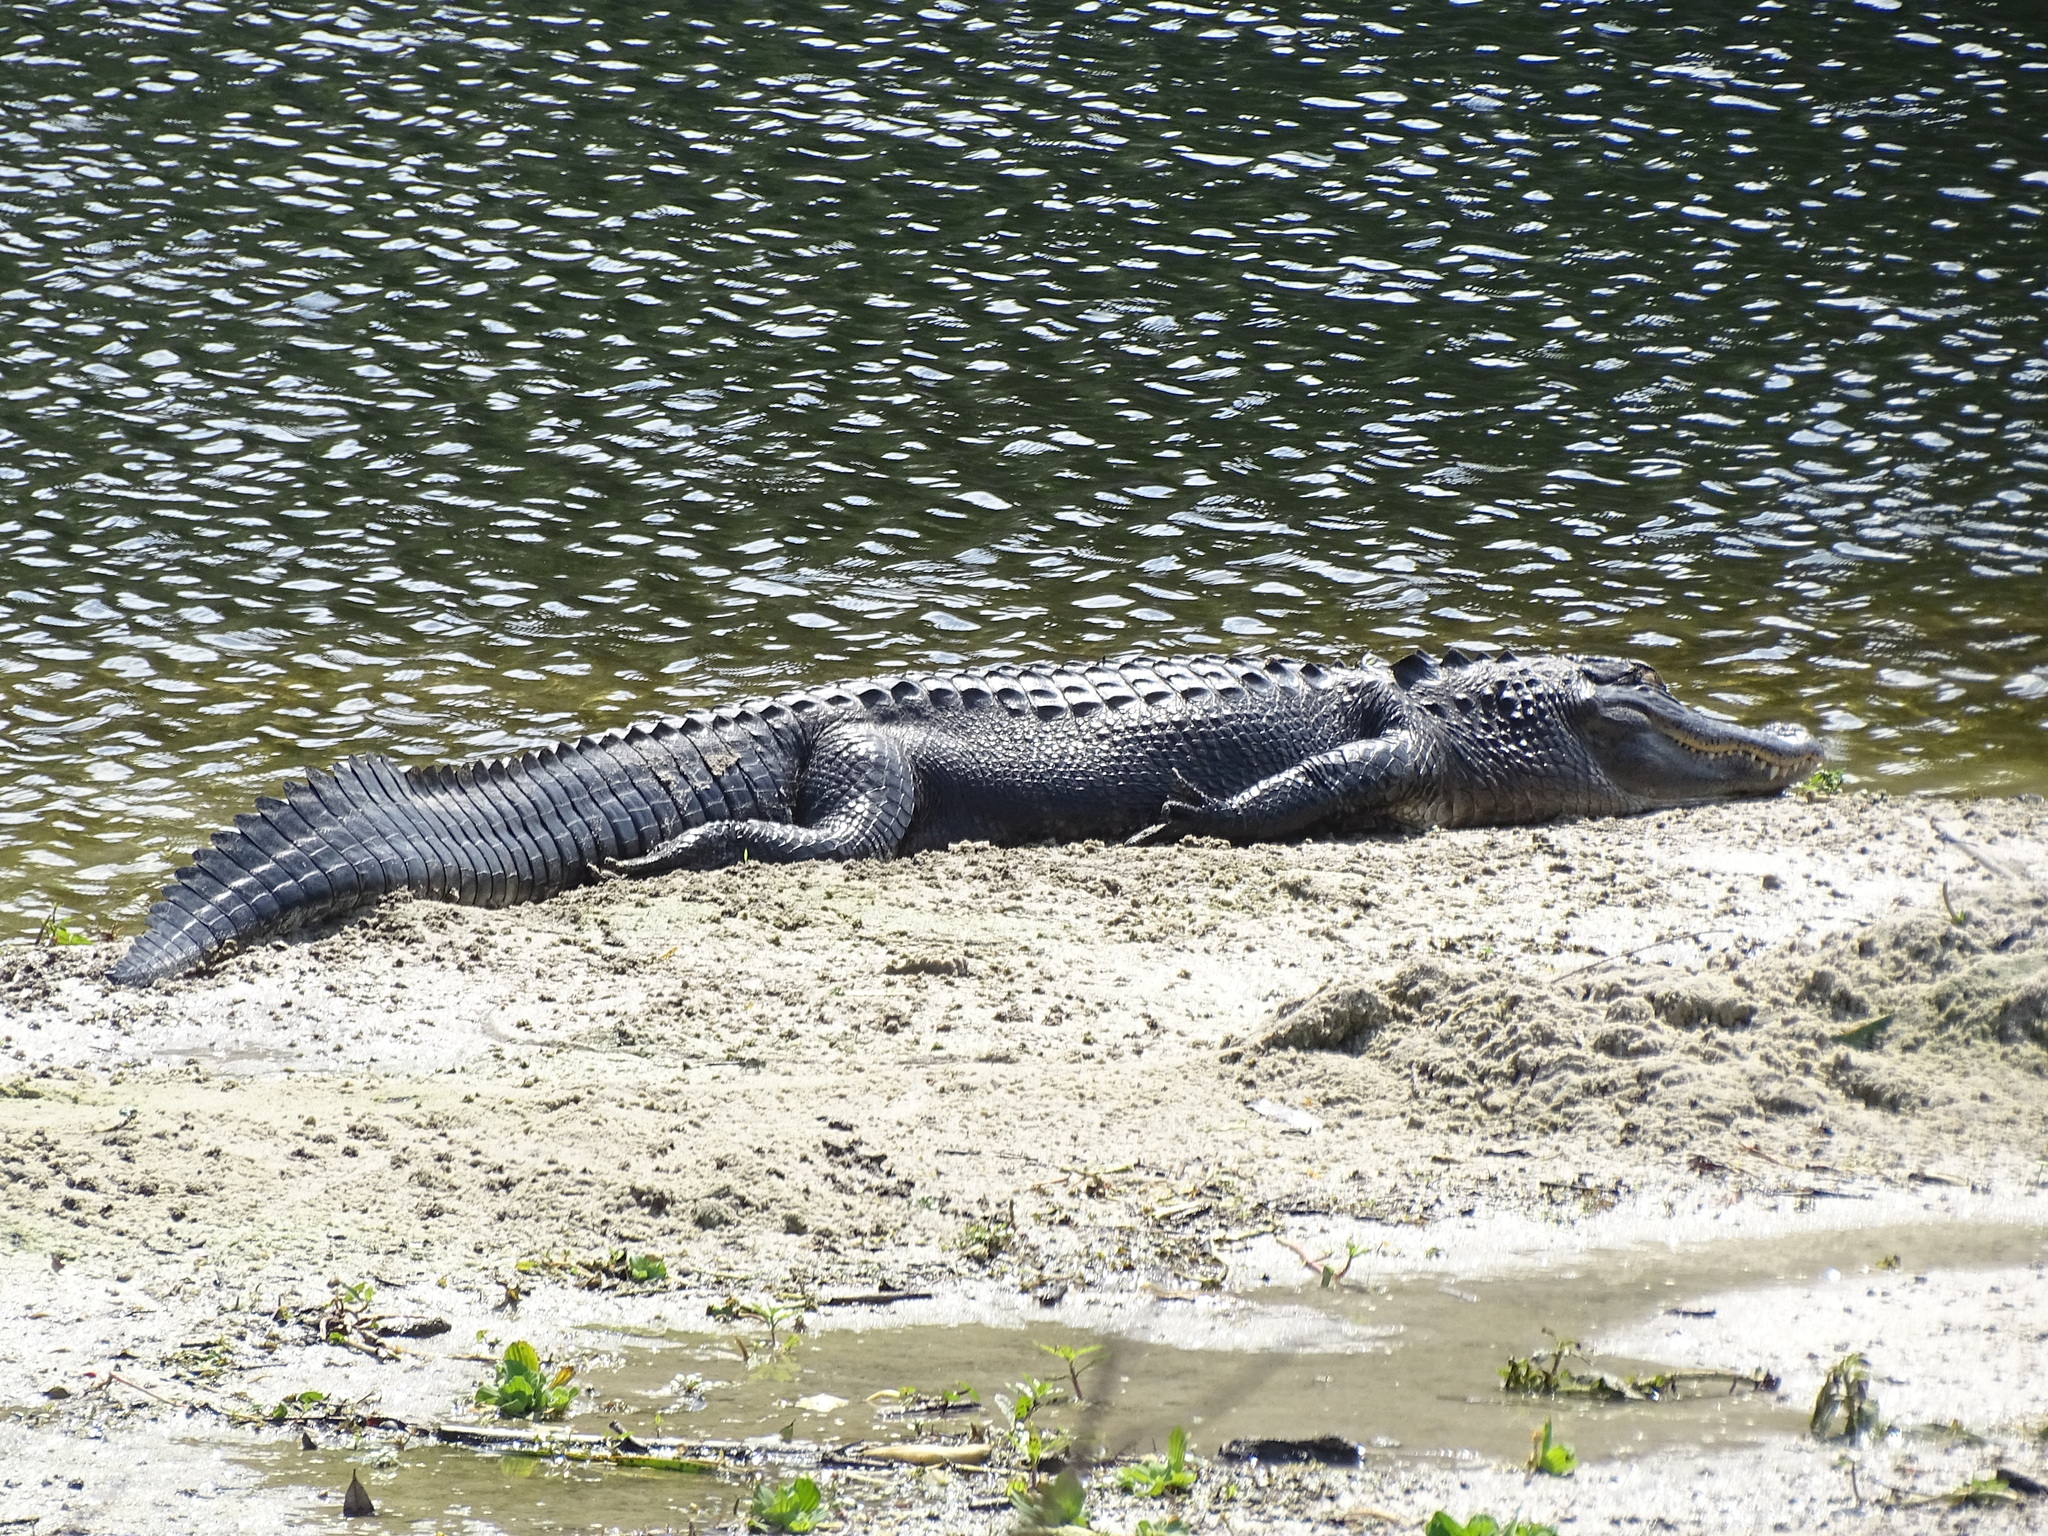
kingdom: Animalia
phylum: Chordata
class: Crocodylia
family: Alligatoridae
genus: Alligator
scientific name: Alligator mississippiensis
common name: American alligator
